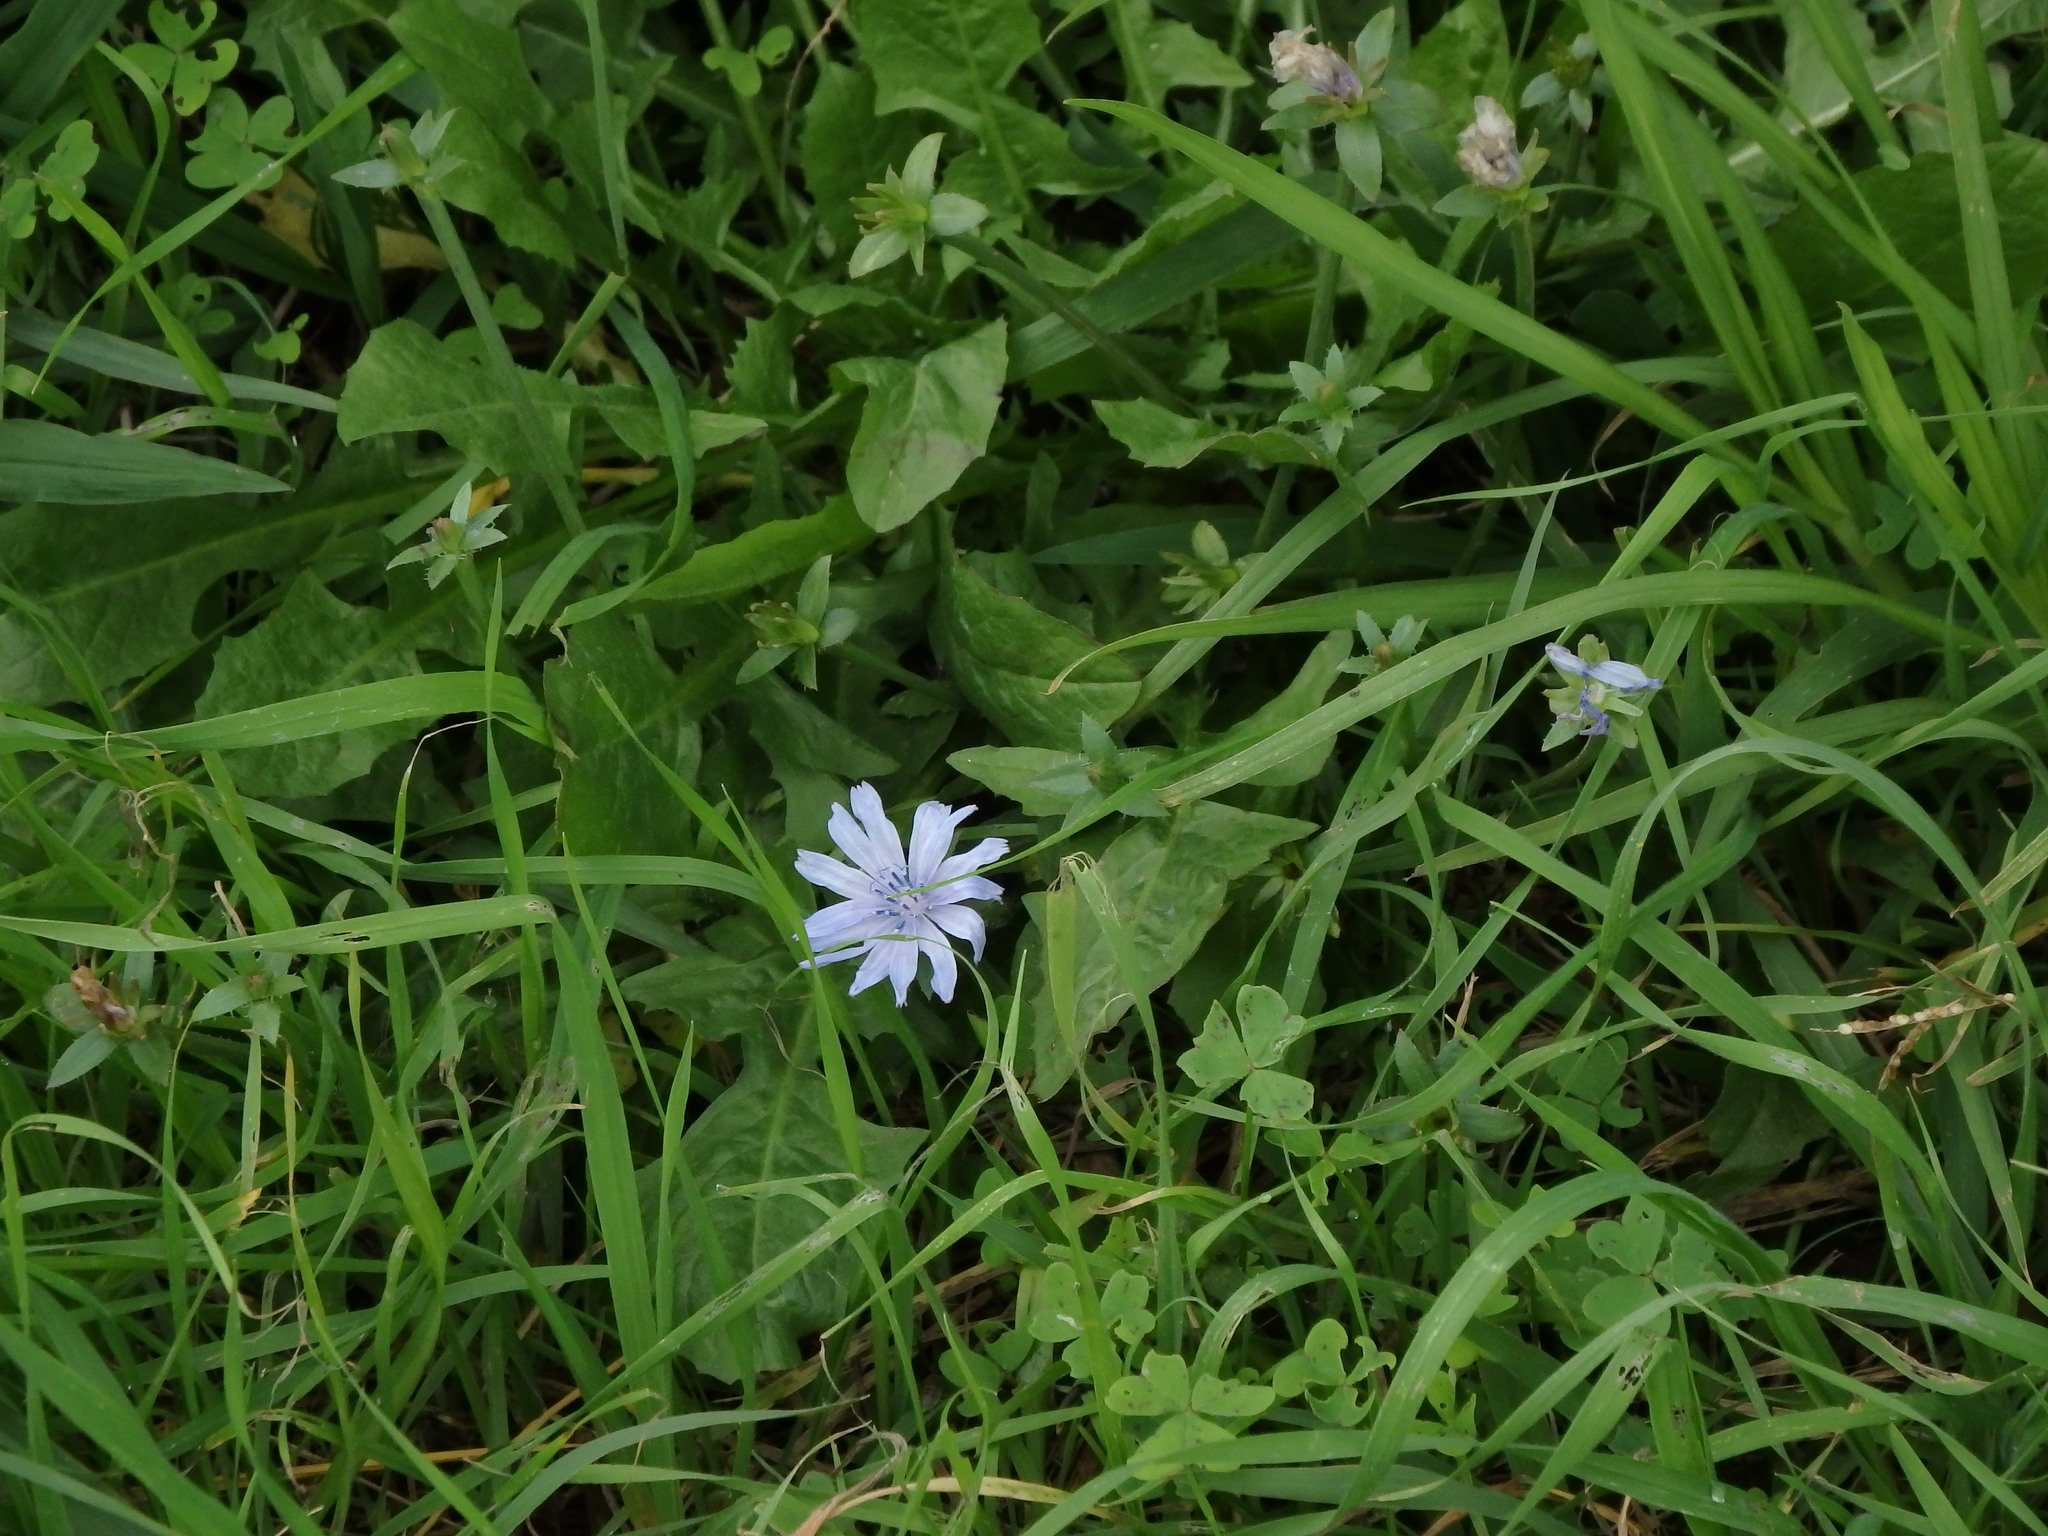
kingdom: Plantae
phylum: Tracheophyta
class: Magnoliopsida
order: Asterales
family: Asteraceae
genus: Cichorium
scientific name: Cichorium intybus
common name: Chicory
